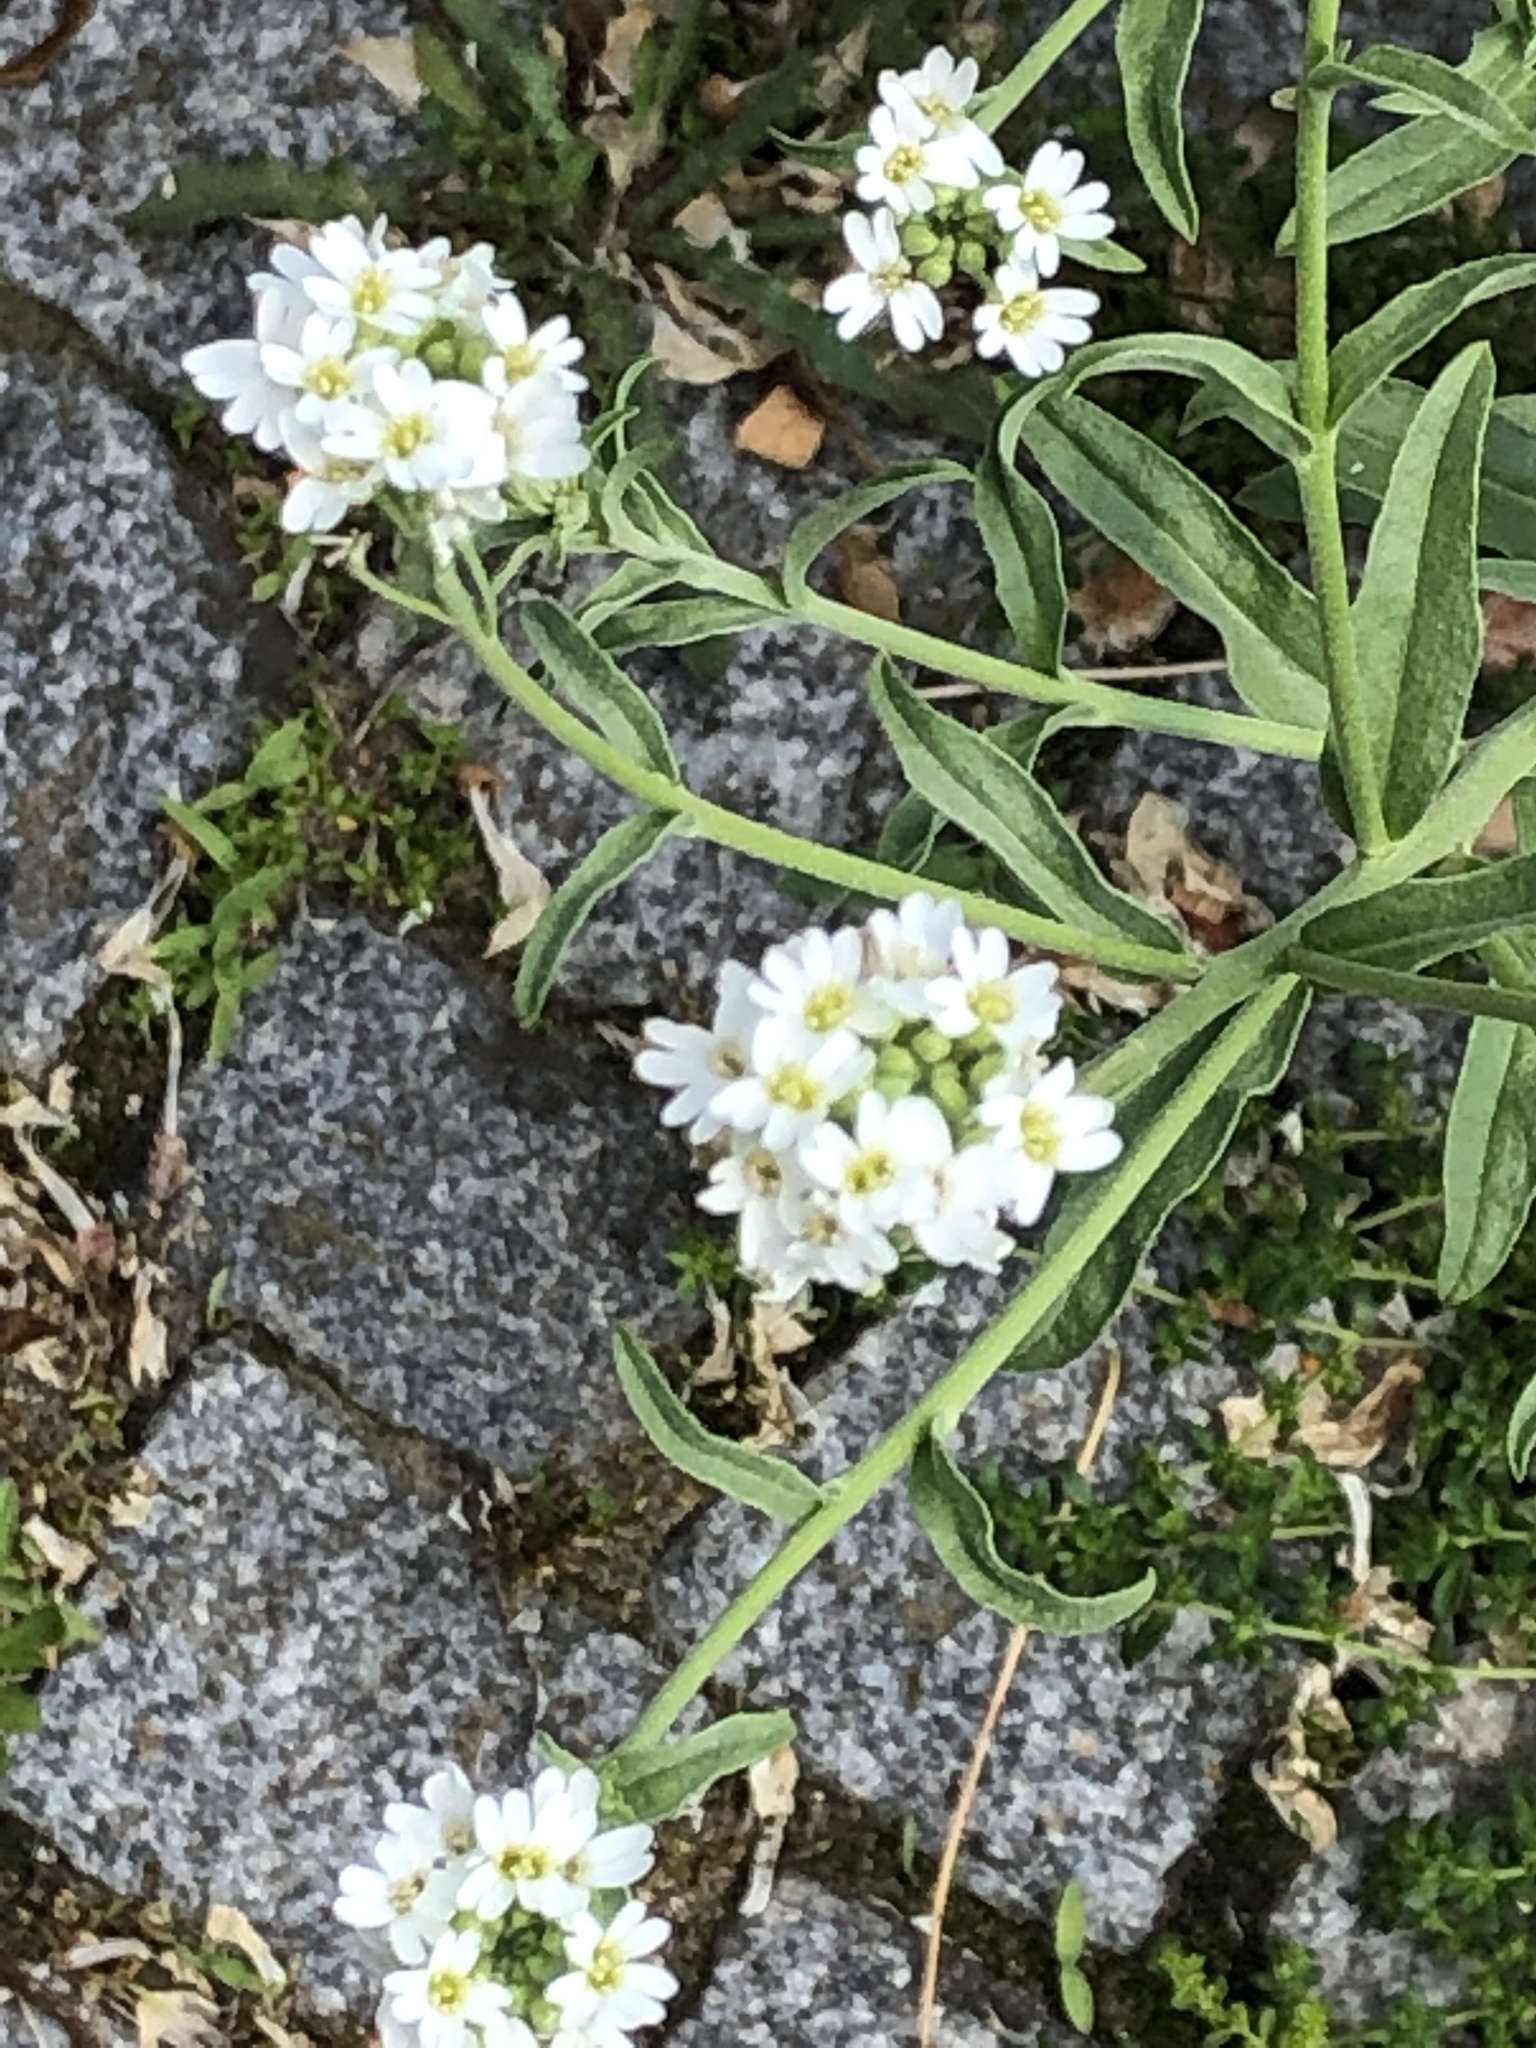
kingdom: Plantae
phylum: Tracheophyta
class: Magnoliopsida
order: Brassicales
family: Brassicaceae
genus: Berteroa
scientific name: Berteroa incana
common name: Hoary alison
